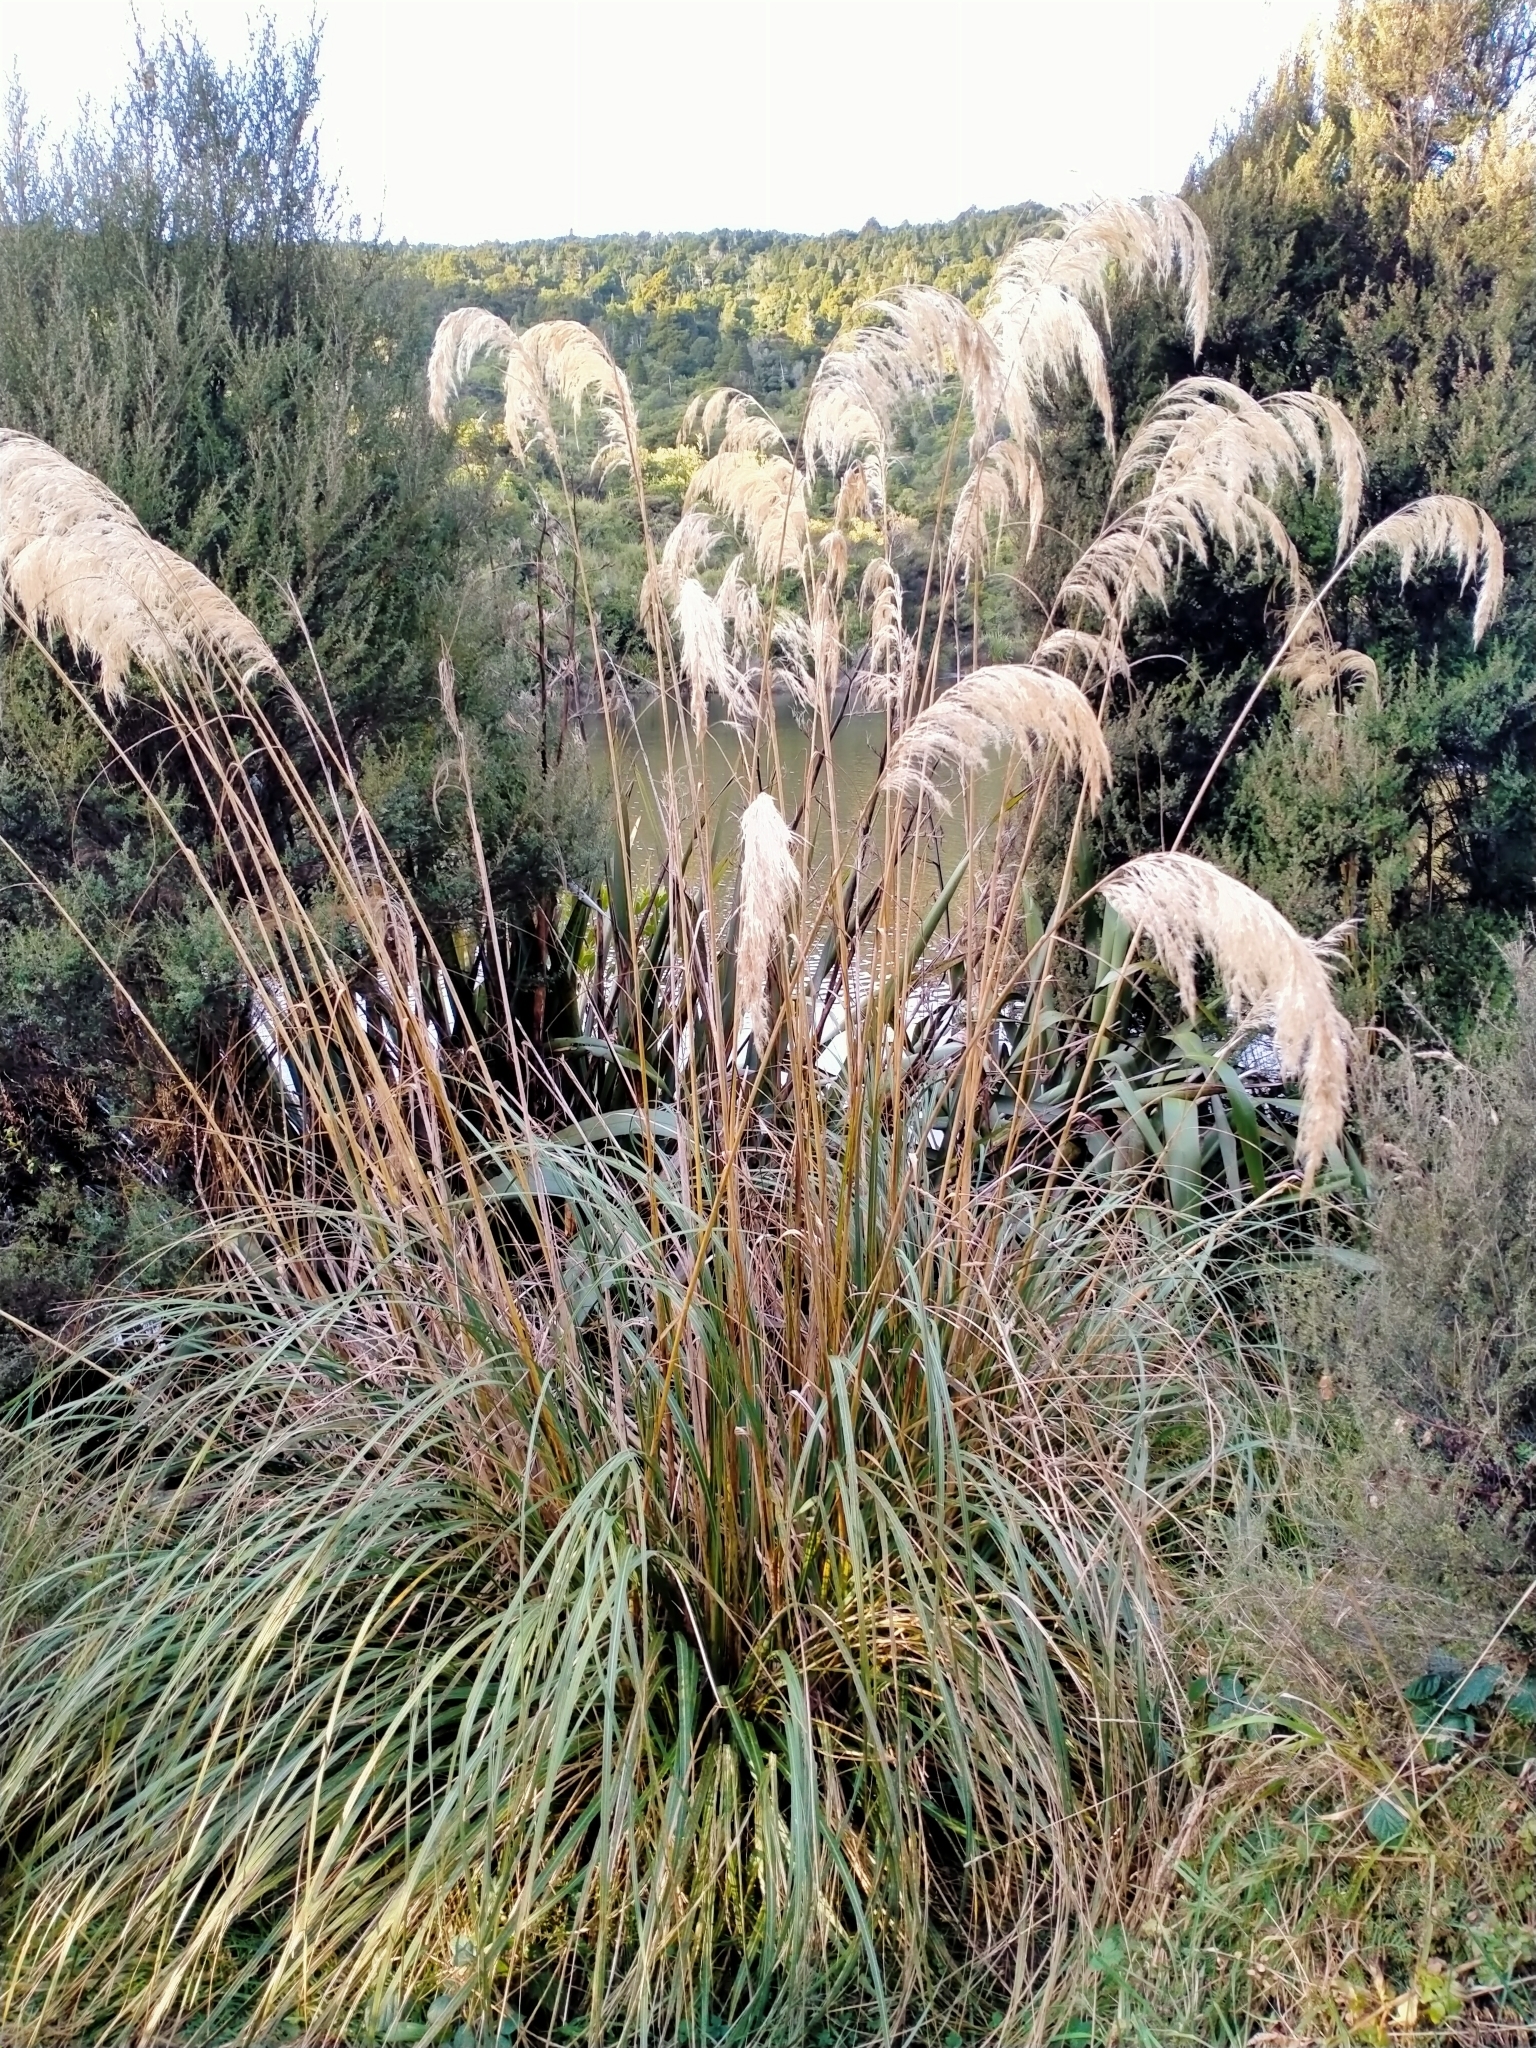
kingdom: Plantae
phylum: Tracheophyta
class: Liliopsida
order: Poales
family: Poaceae
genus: Austroderia
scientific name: Austroderia richardii
